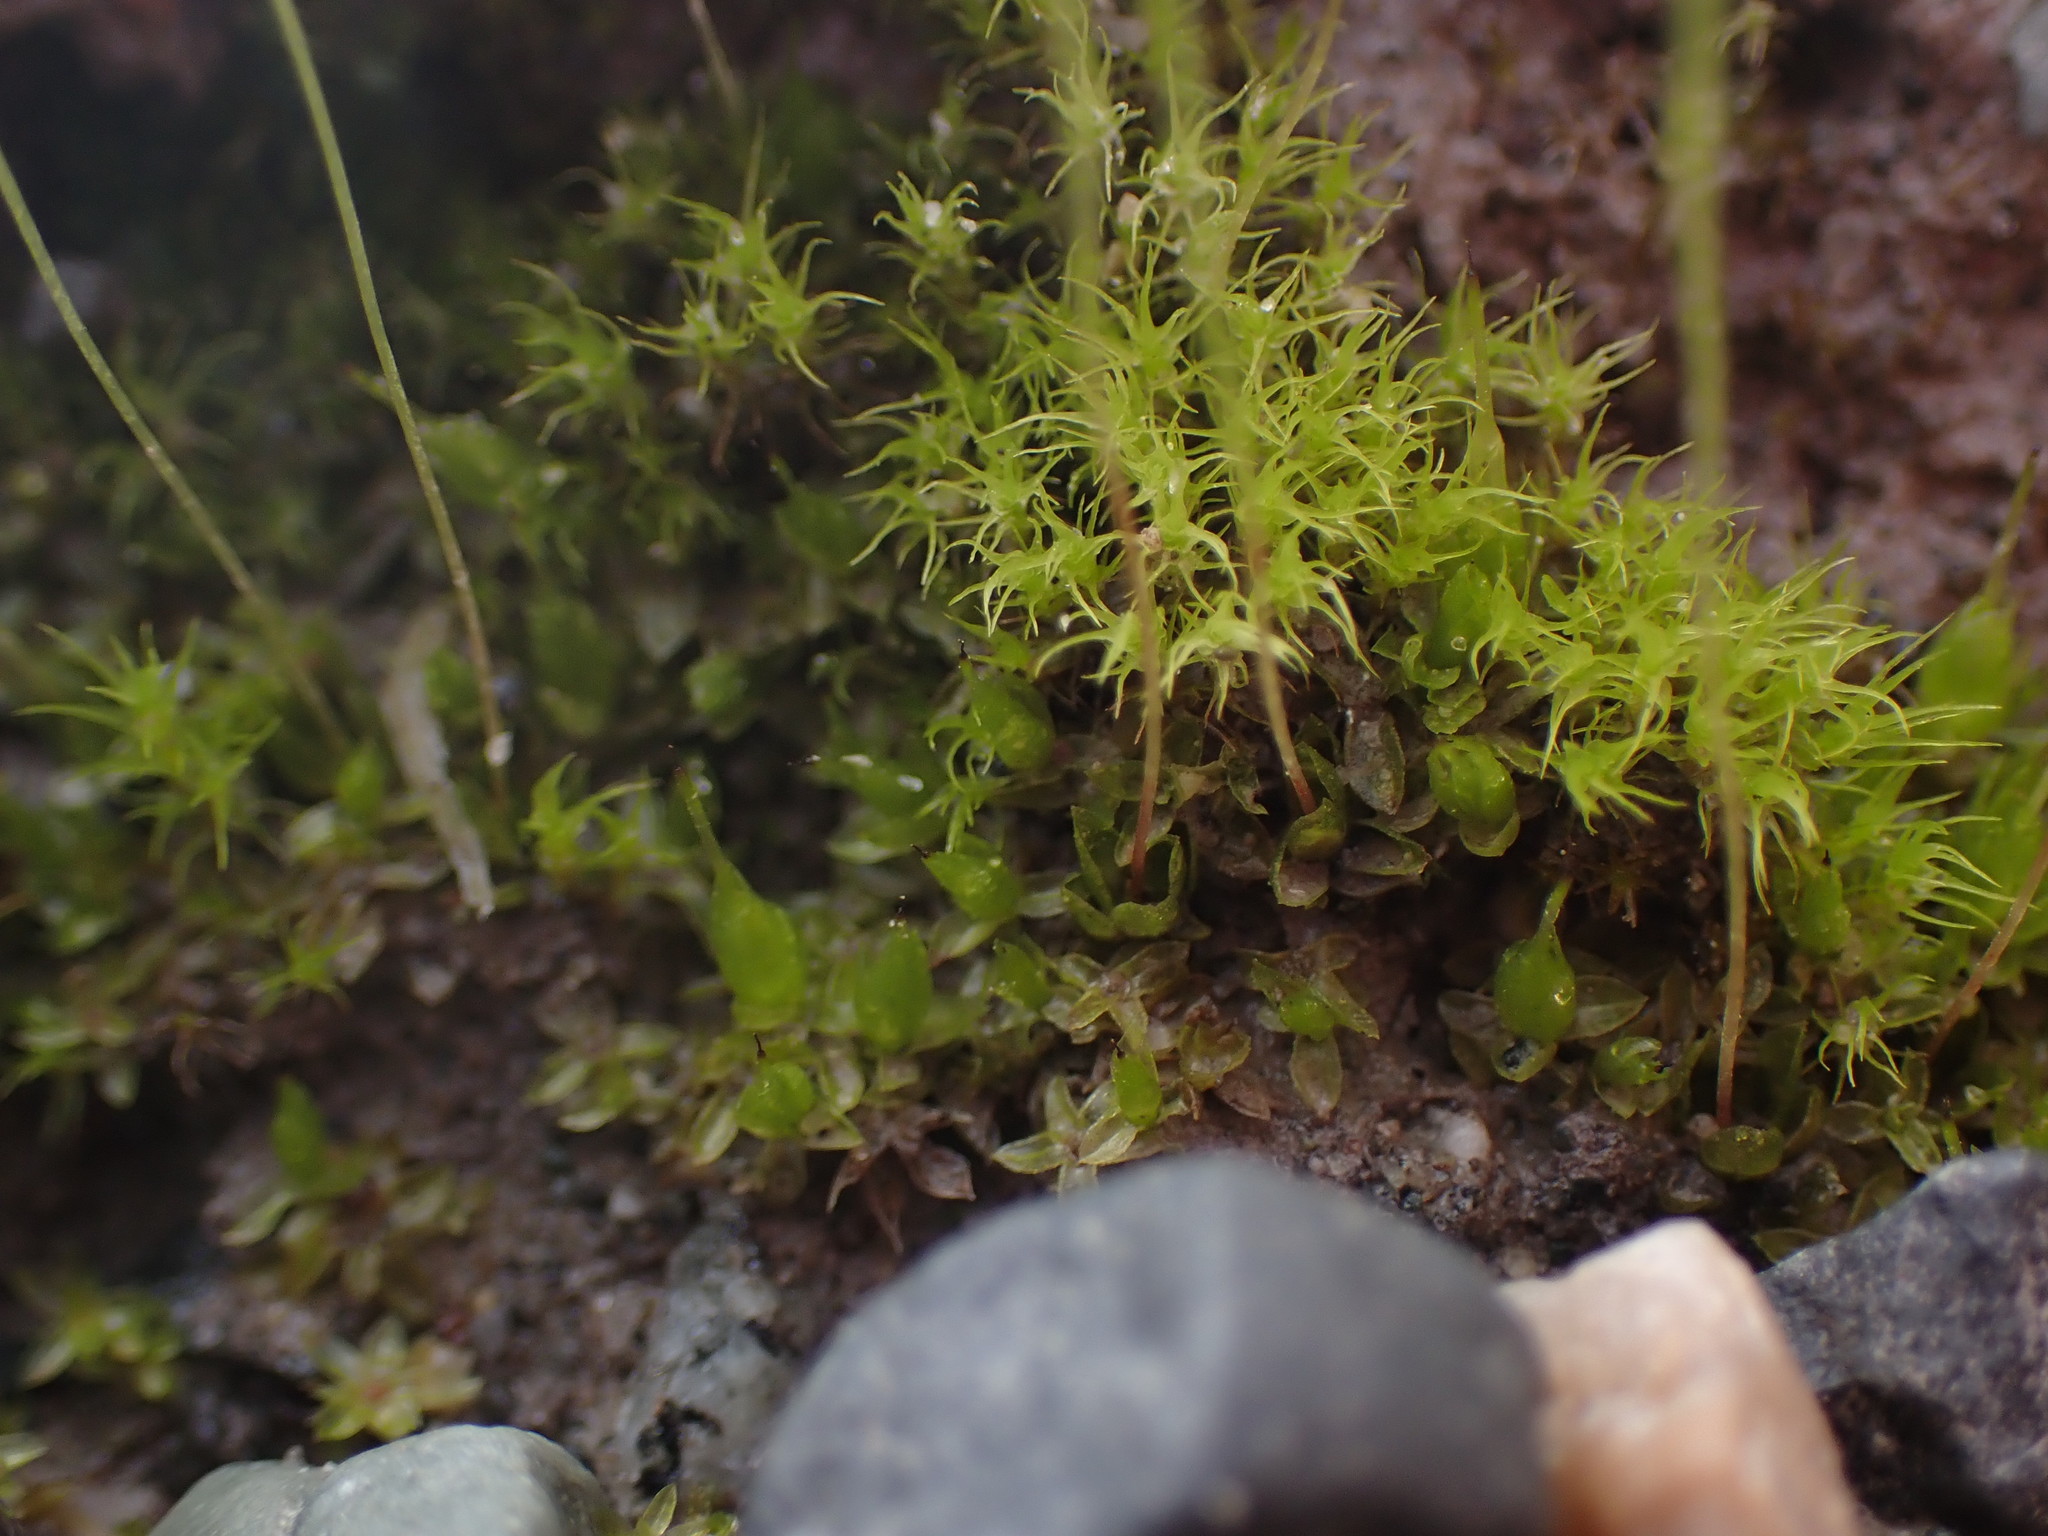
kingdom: Plantae
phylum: Bryophyta
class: Bryopsida
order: Funariales
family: Funariaceae
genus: Funaria
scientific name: Funaria hygrometrica
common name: Common cord moss
